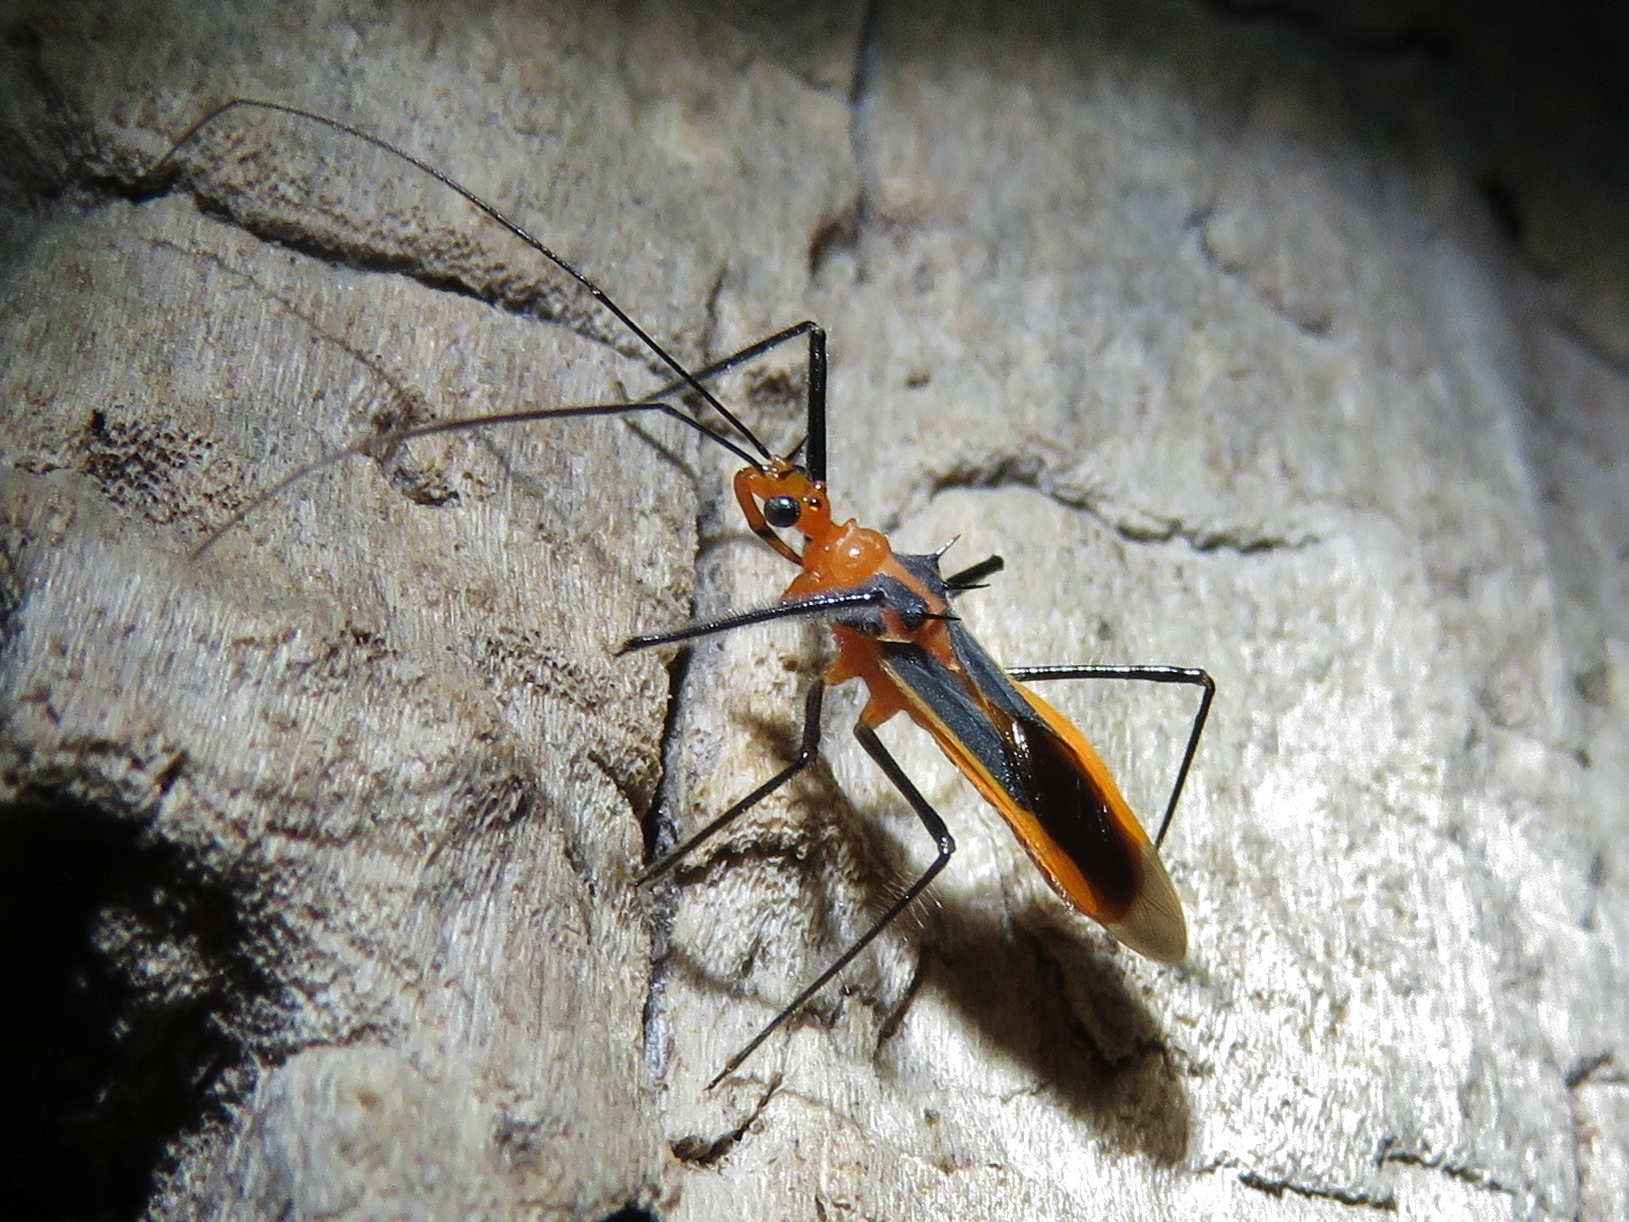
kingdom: Animalia
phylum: Arthropoda
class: Insecta
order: Hemiptera
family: Reduviidae
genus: Repipta
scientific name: Repipta taurus
